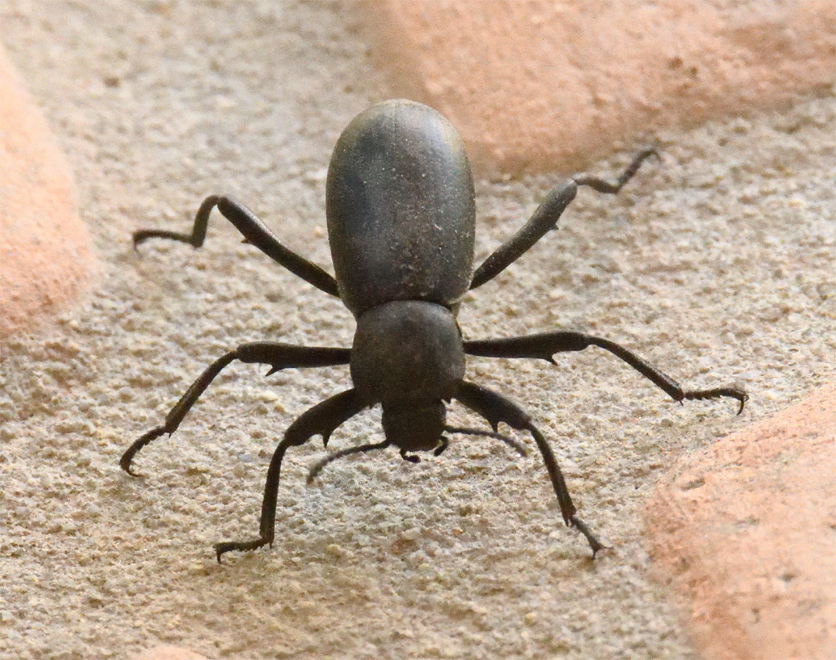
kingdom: Animalia
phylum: Arthropoda
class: Insecta
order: Coleoptera
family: Tenebrionidae
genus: Eleodes
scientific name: Eleodes armata
